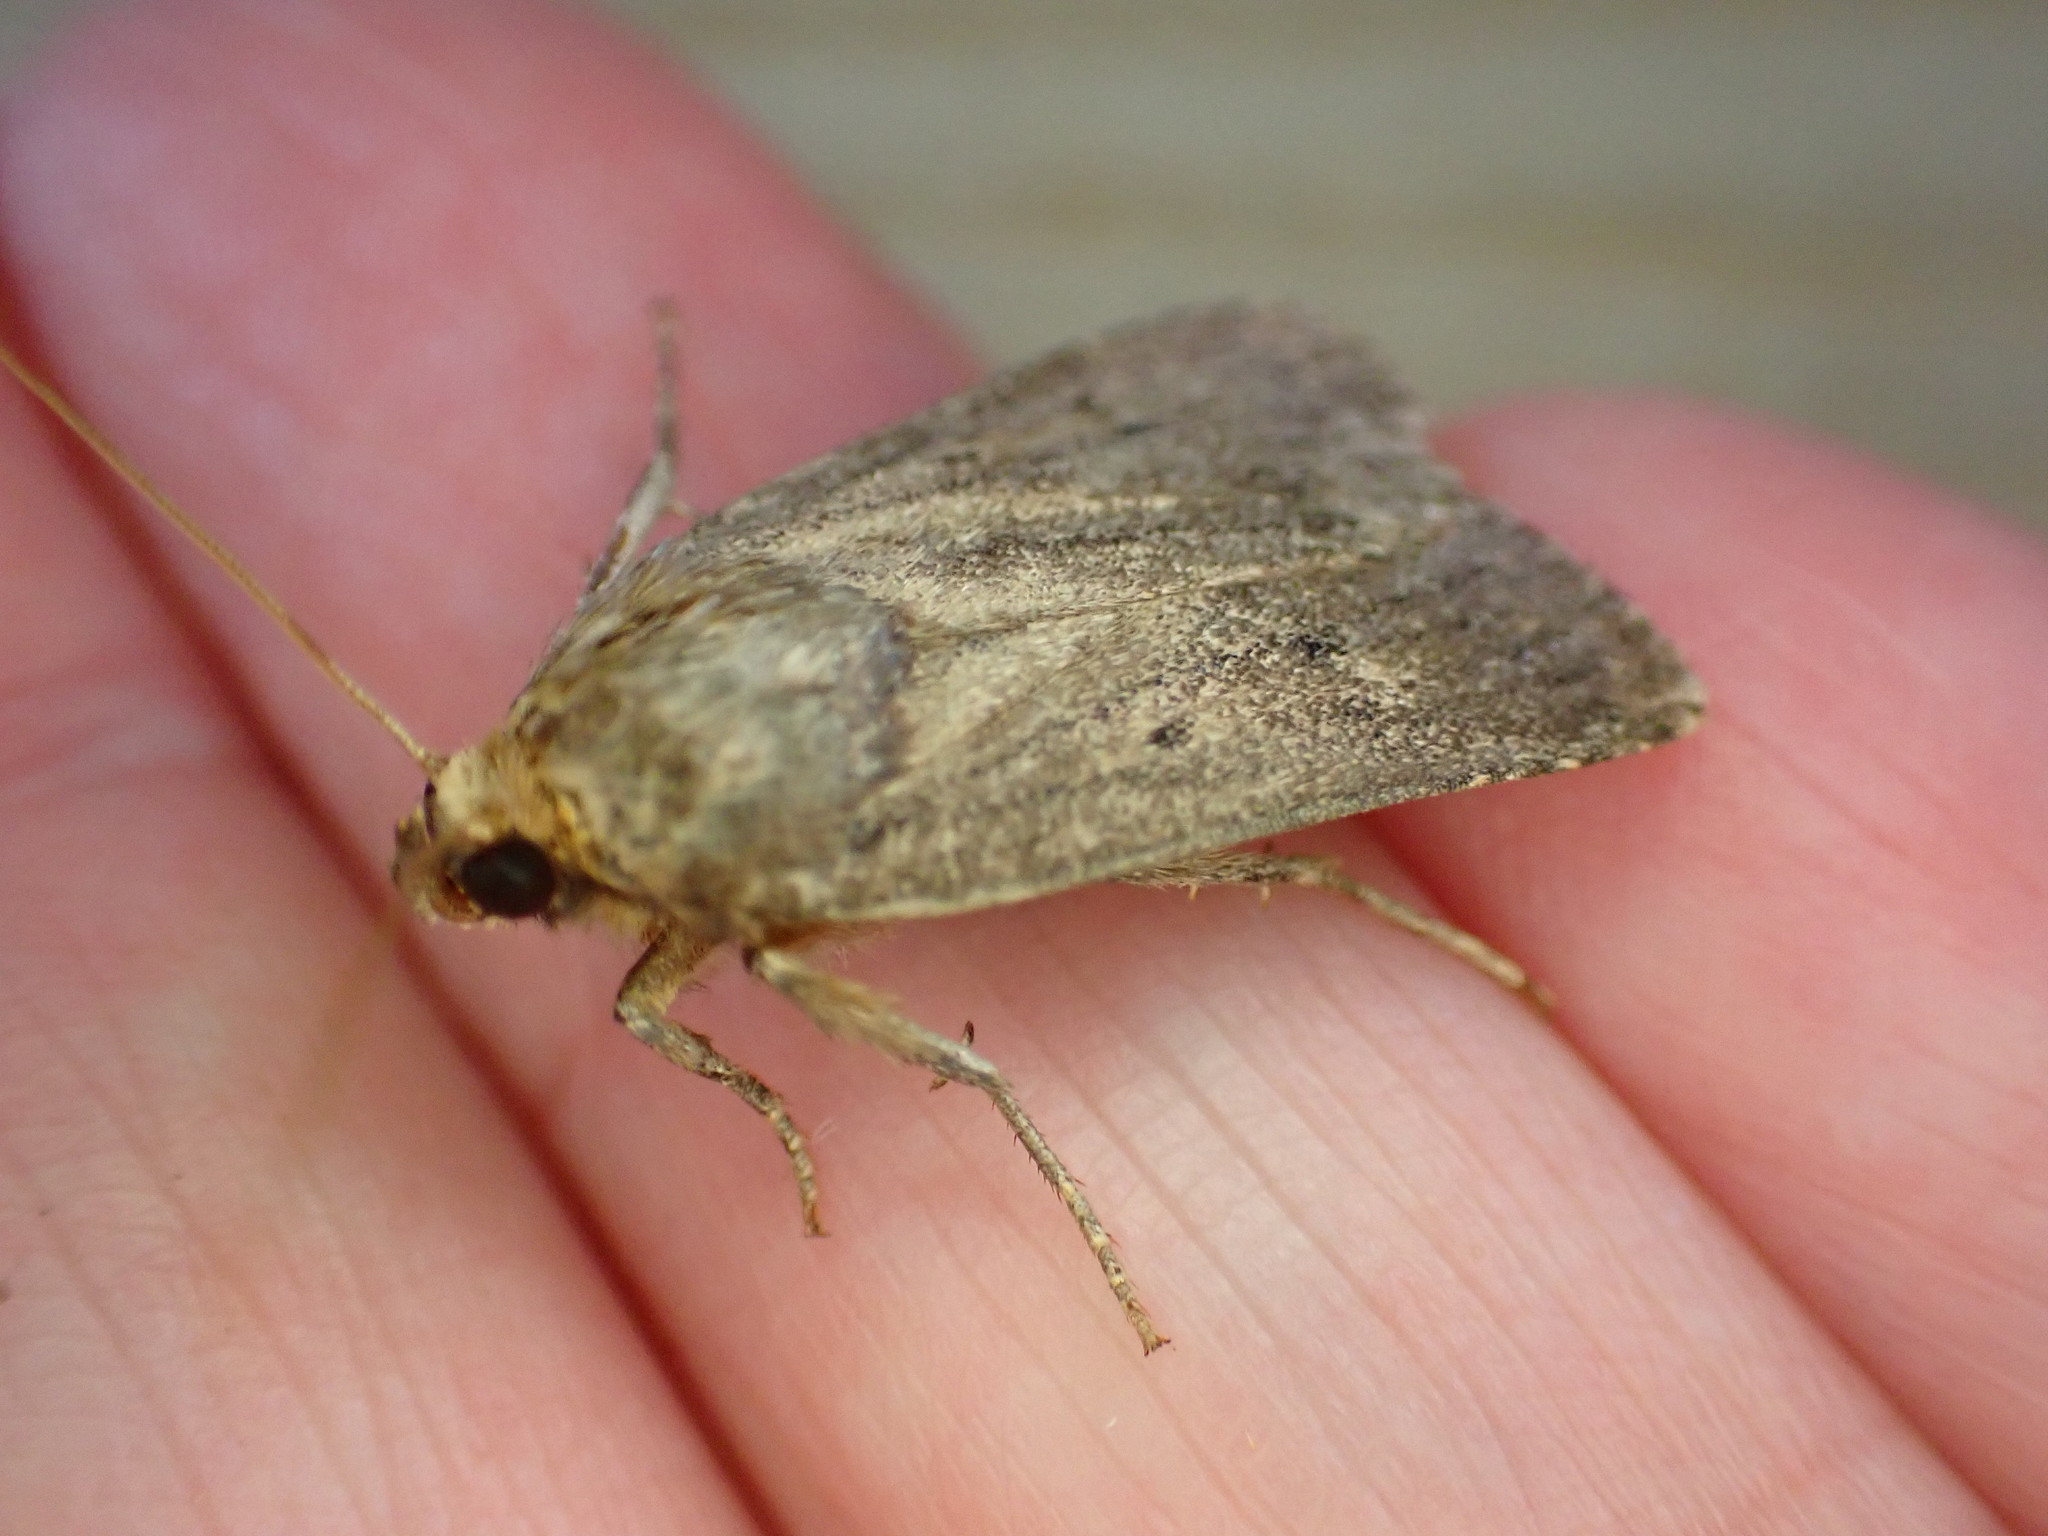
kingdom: Animalia
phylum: Arthropoda
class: Insecta
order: Lepidoptera
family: Noctuidae
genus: Amphipyra
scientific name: Amphipyra tragopoginis
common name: Mouse moth
